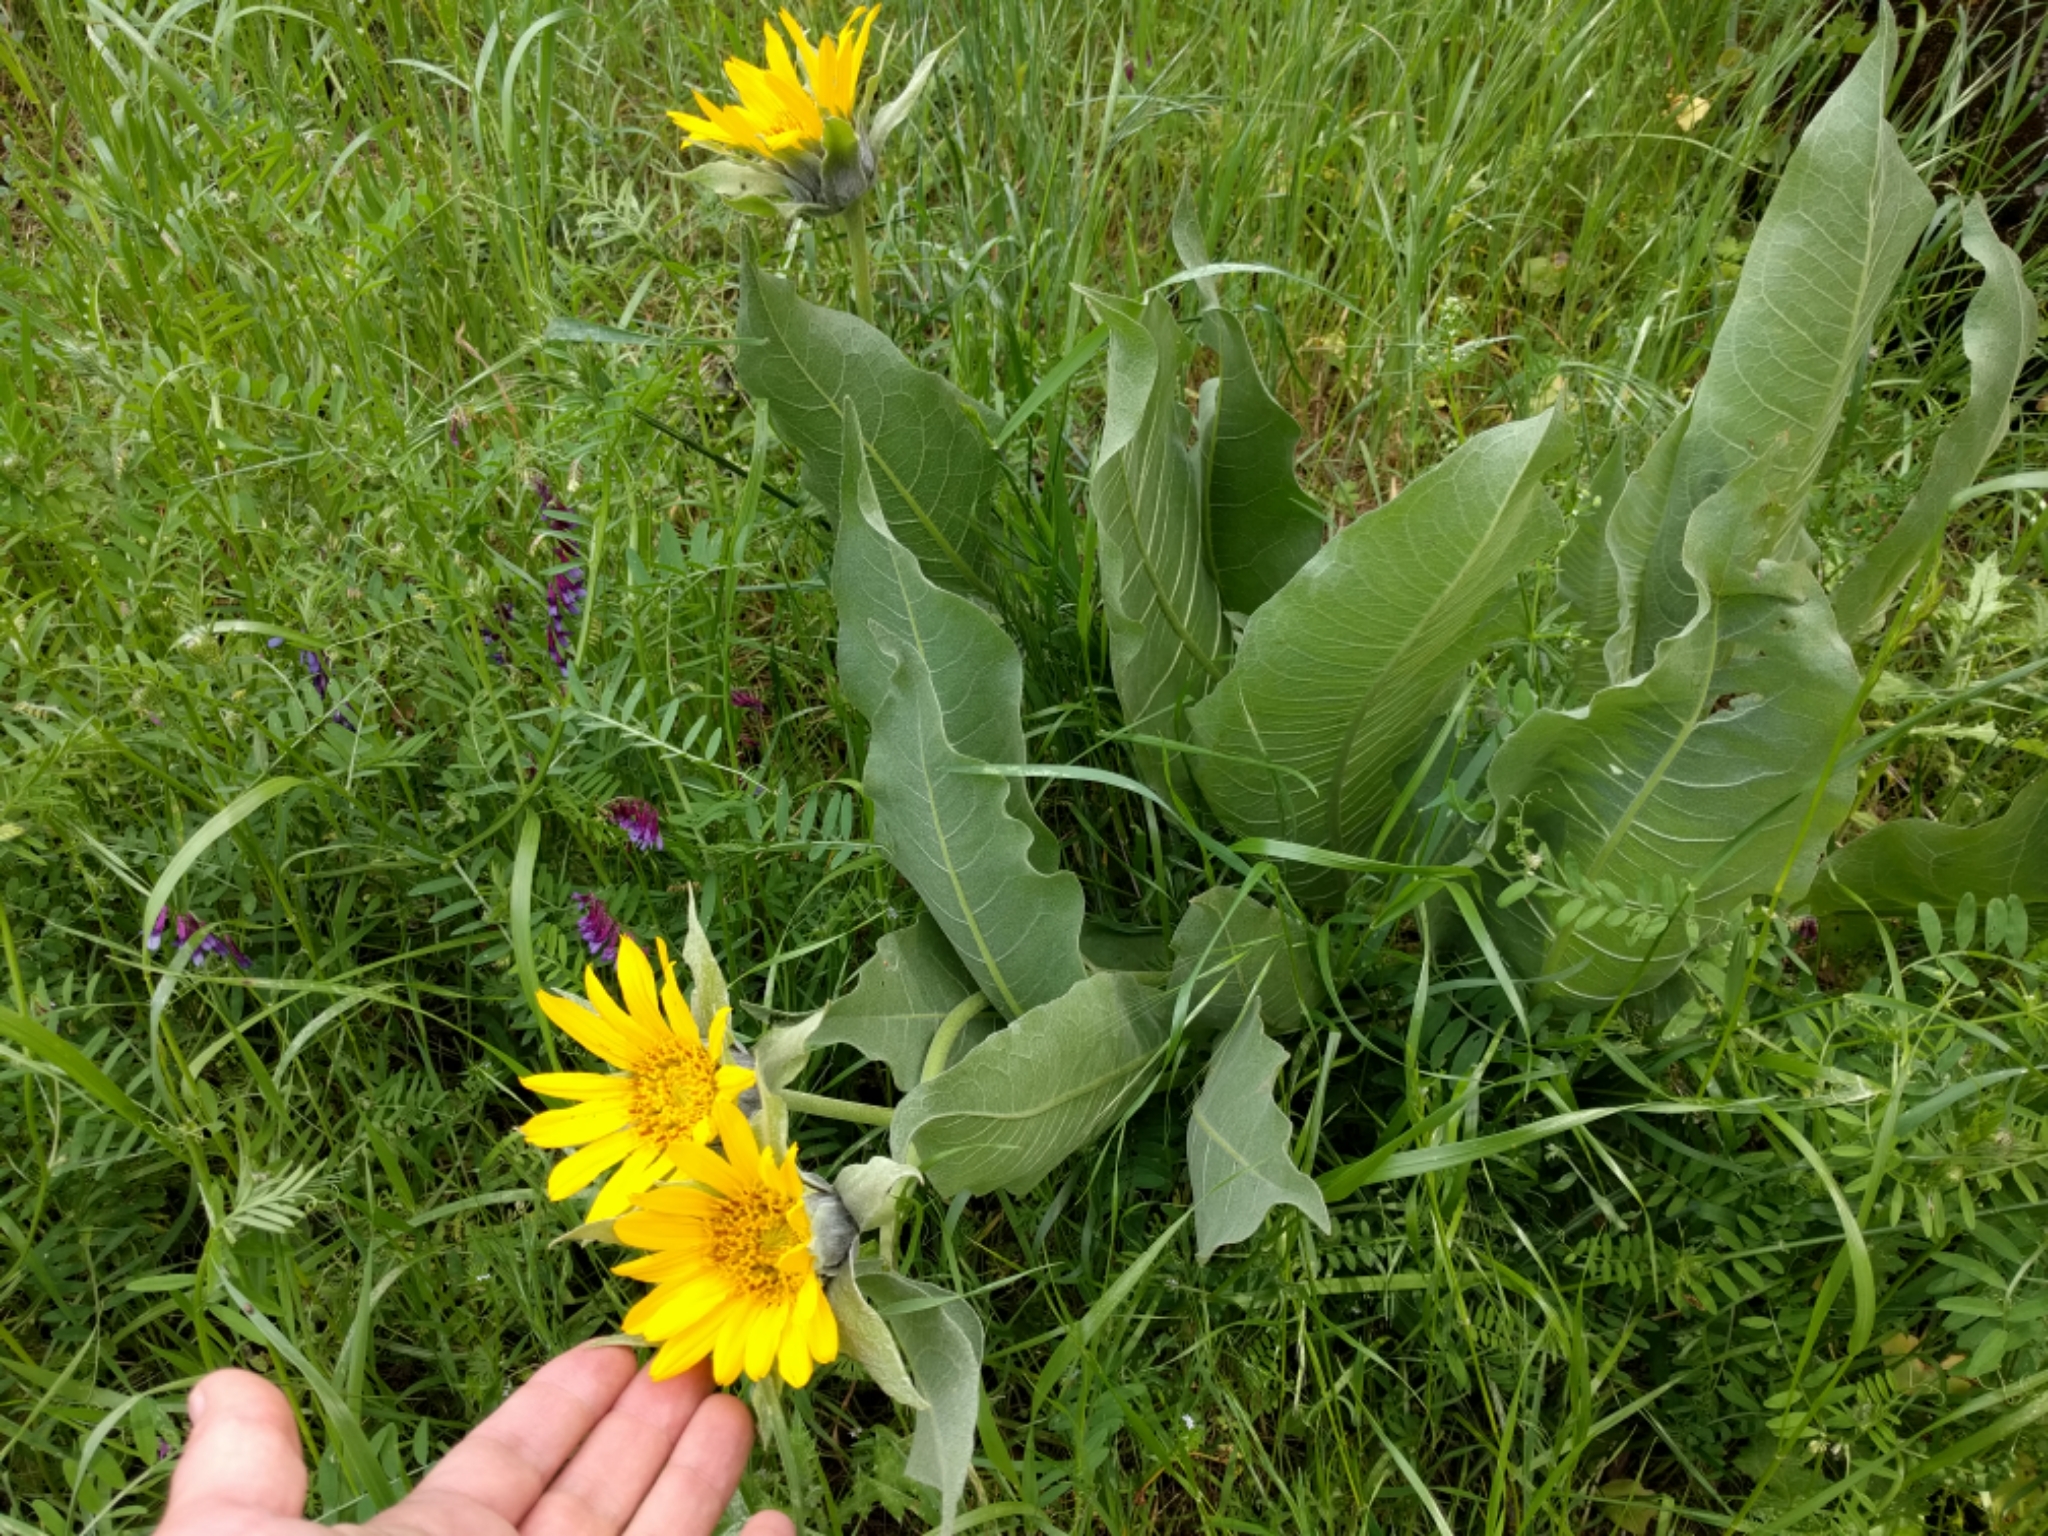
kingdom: Plantae
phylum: Tracheophyta
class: Magnoliopsida
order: Asterales
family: Asteraceae
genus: Wyethia
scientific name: Wyethia helenioides
